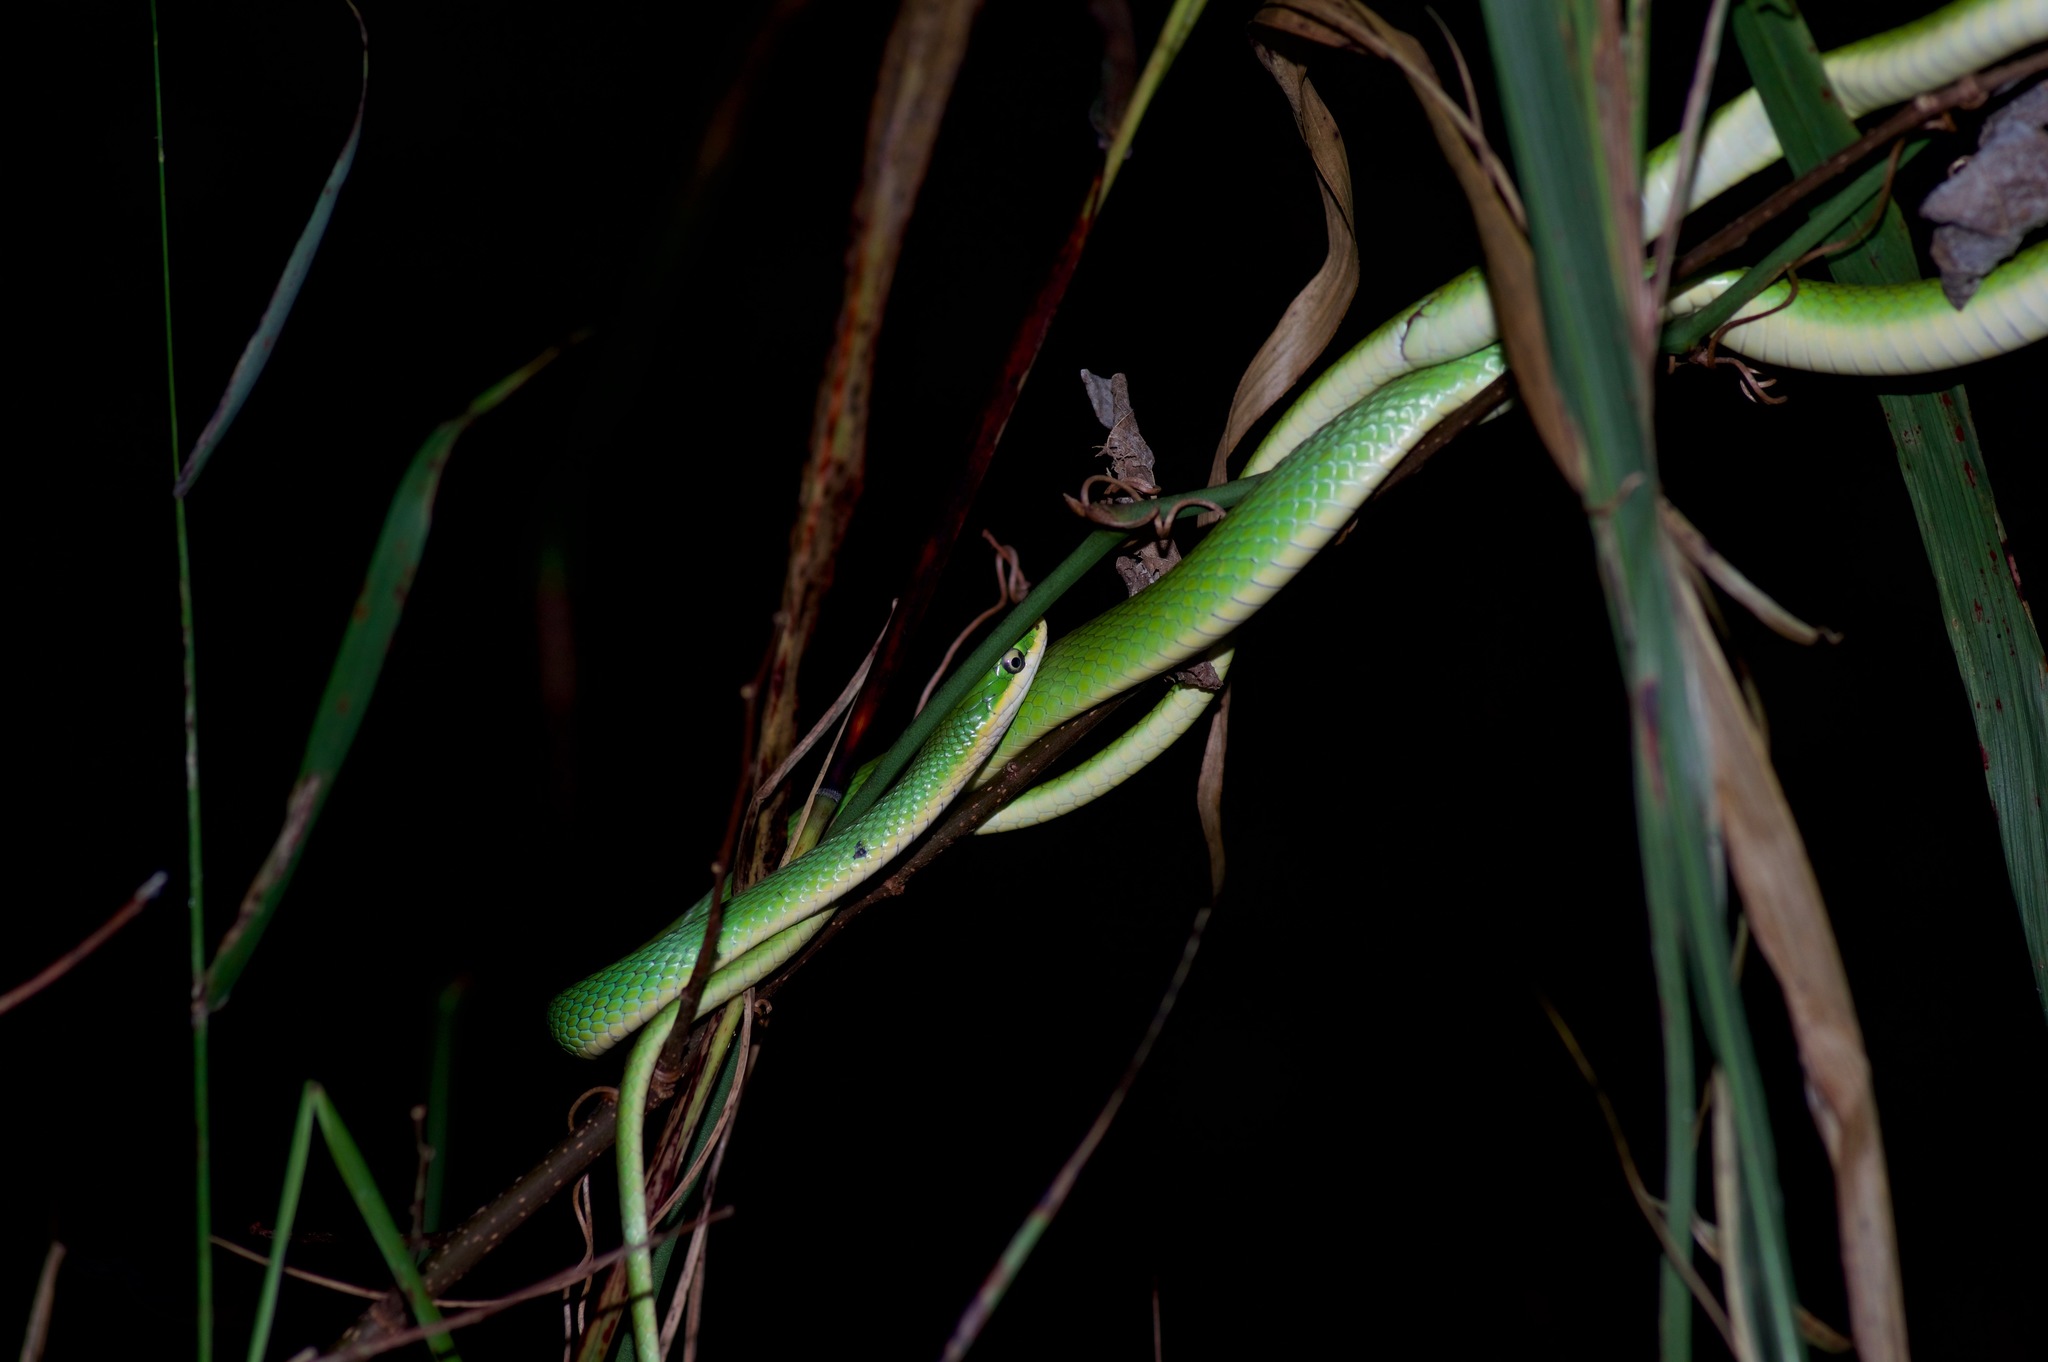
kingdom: Animalia
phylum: Chordata
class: Squamata
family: Colubridae
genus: Opheodrys
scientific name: Opheodrys aestivus
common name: Rough greensnake
